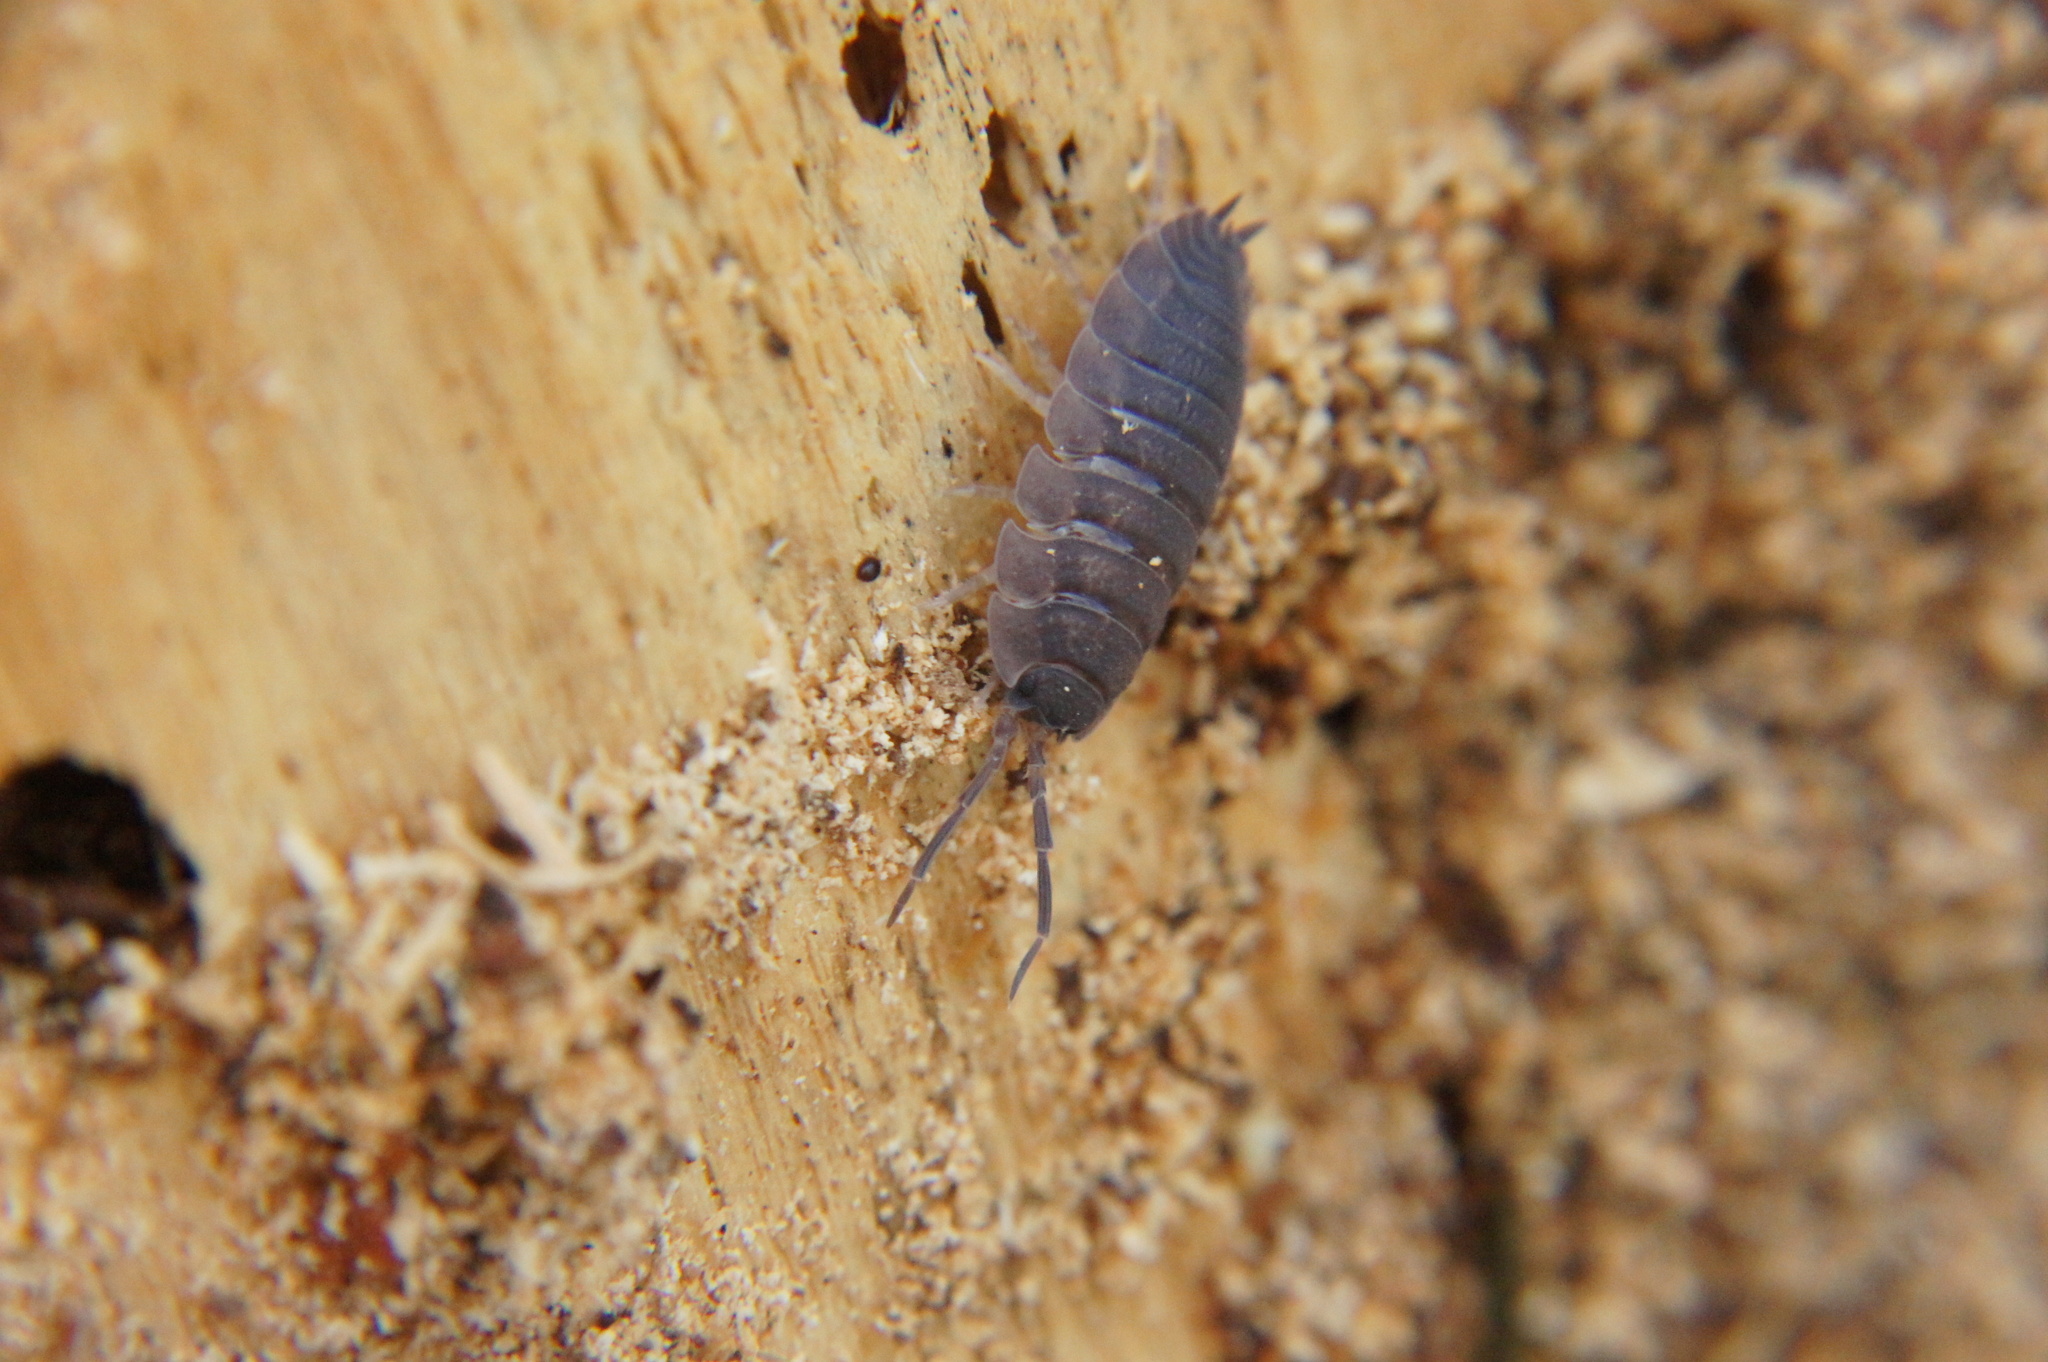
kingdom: Animalia
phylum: Arthropoda
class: Malacostraca
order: Isopoda
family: Porcellionidae
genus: Porcellio
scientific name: Porcellio scaber
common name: Common rough woodlouse
